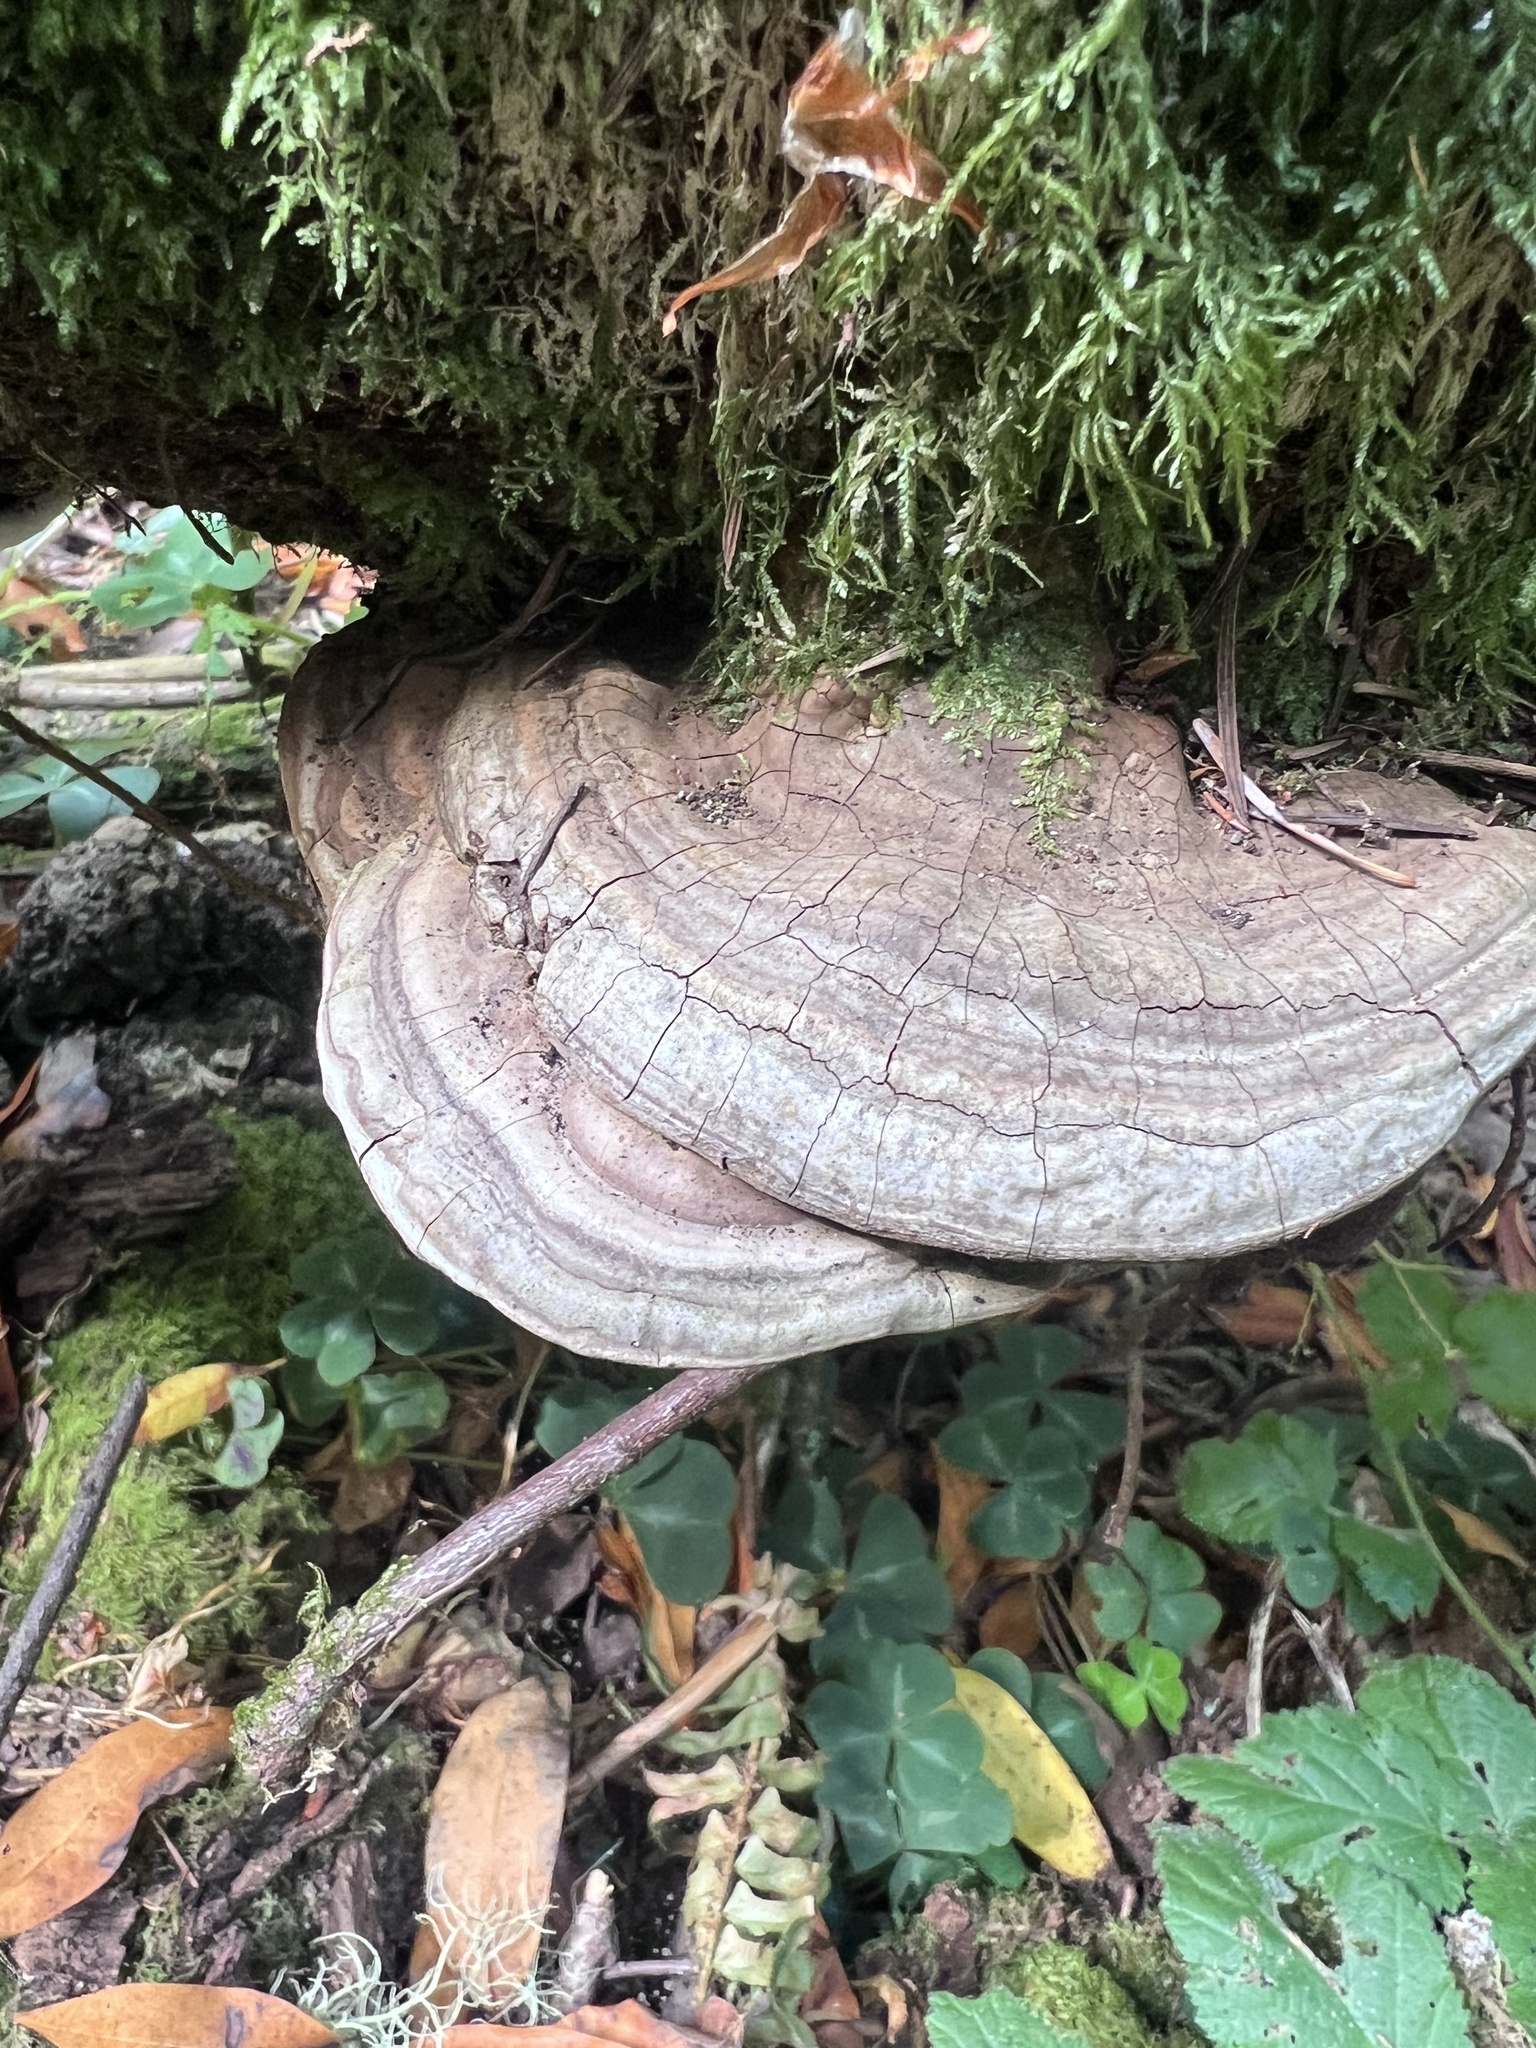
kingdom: Fungi
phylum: Basidiomycota
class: Agaricomycetes
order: Polyporales
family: Polyporaceae
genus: Ganoderma
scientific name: Ganoderma brownii
